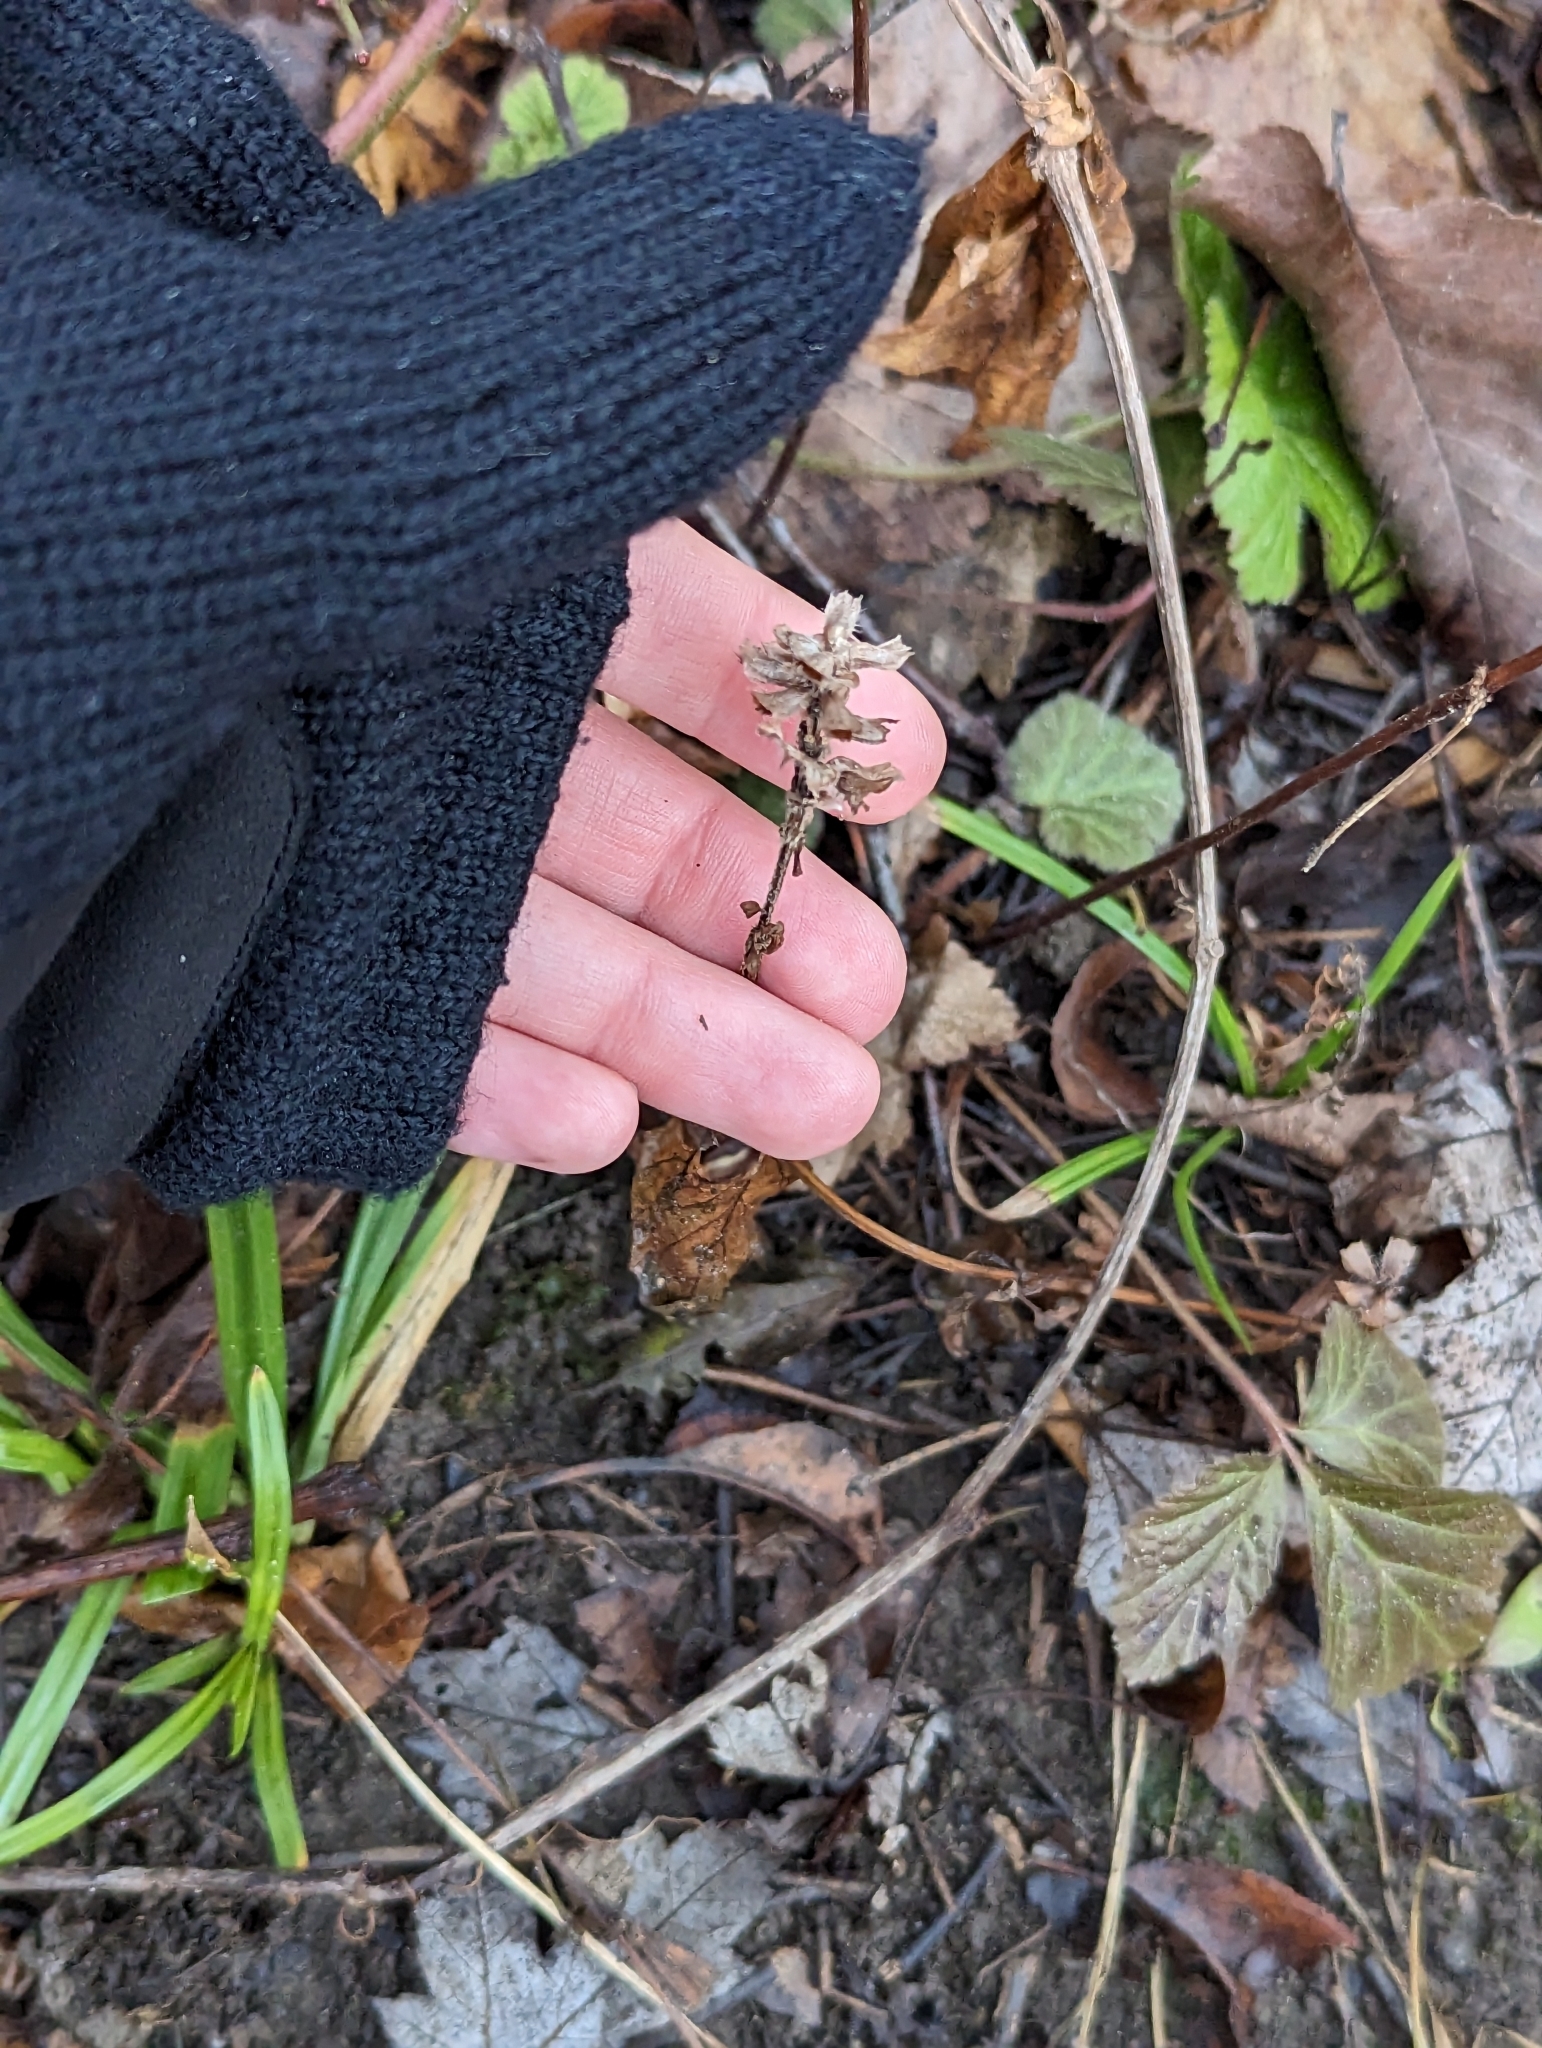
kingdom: Plantae
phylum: Tracheophyta
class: Magnoliopsida
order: Lamiales
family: Lamiaceae
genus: Prunella
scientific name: Prunella vulgaris
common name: Heal-all
